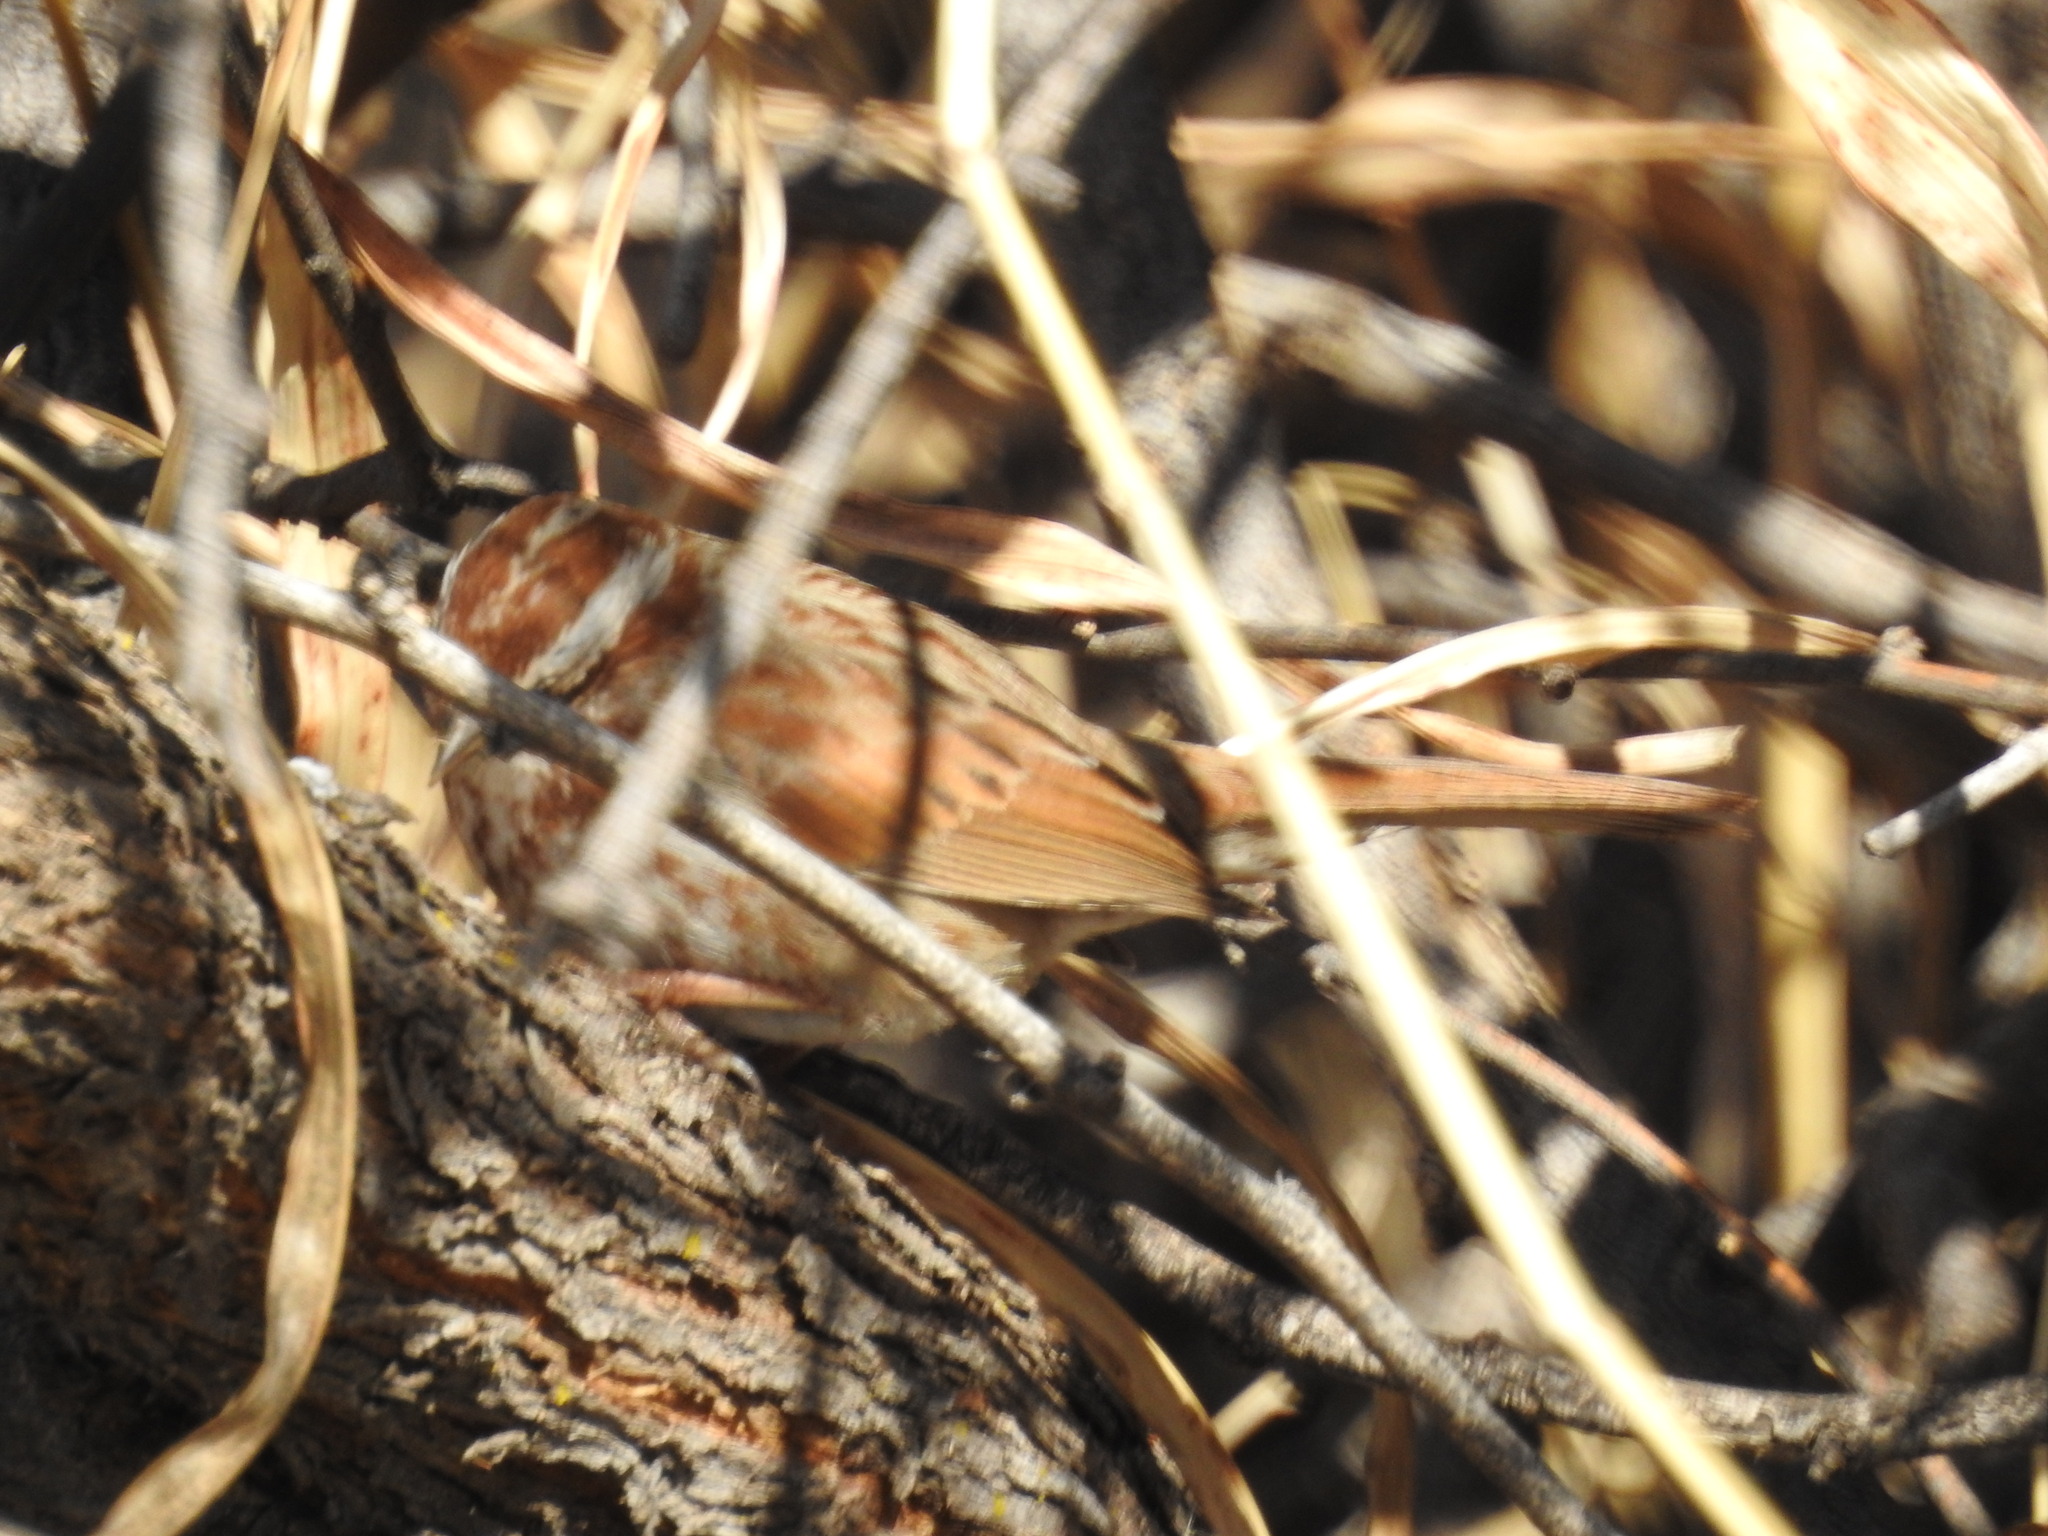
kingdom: Animalia
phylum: Chordata
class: Aves
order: Passeriformes
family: Passerellidae
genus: Melospiza
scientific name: Melospiza melodia
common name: Song sparrow
